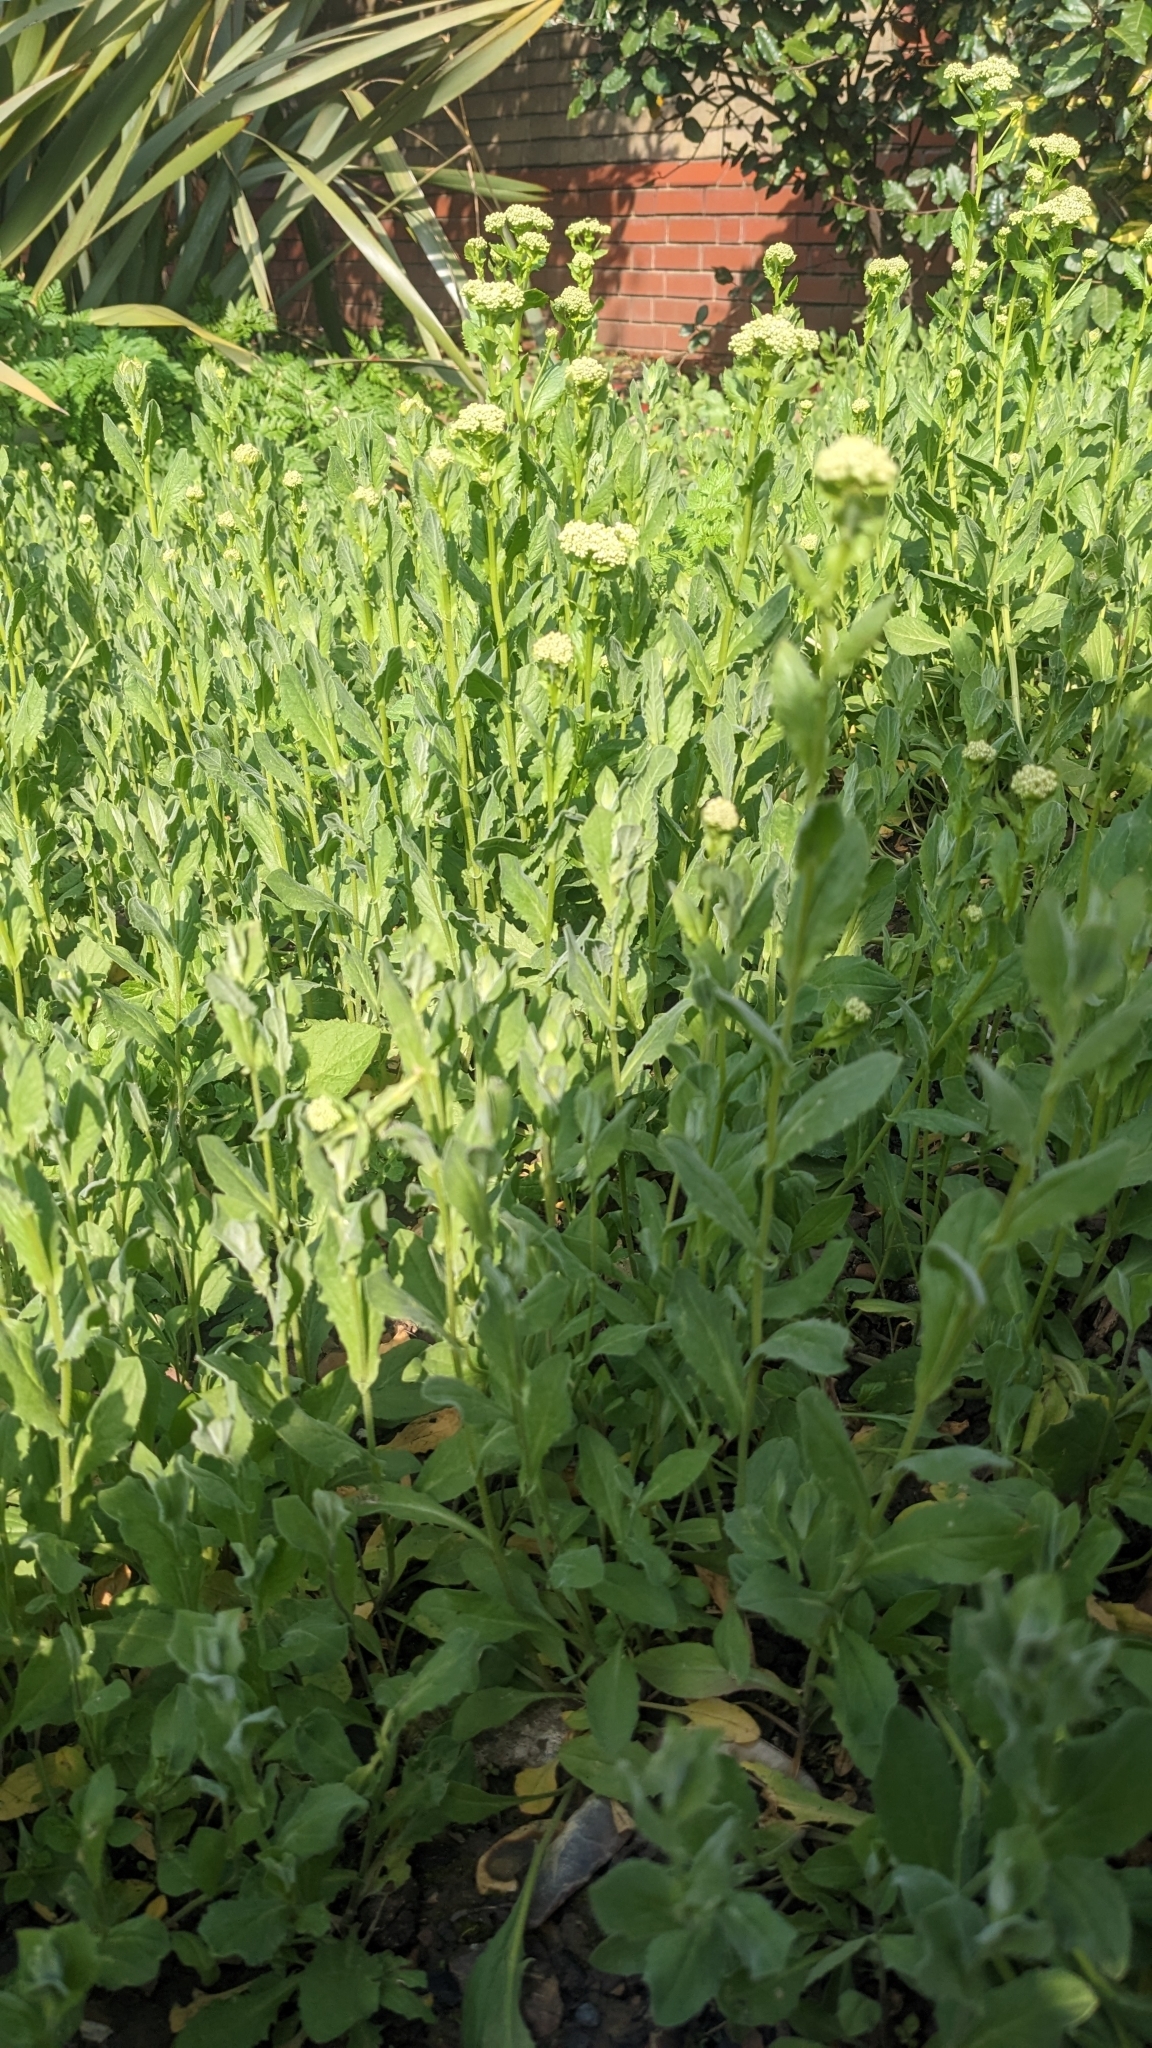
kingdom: Plantae
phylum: Tracheophyta
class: Magnoliopsida
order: Brassicales
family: Brassicaceae
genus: Lepidium
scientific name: Lepidium draba
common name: Hoary cress
